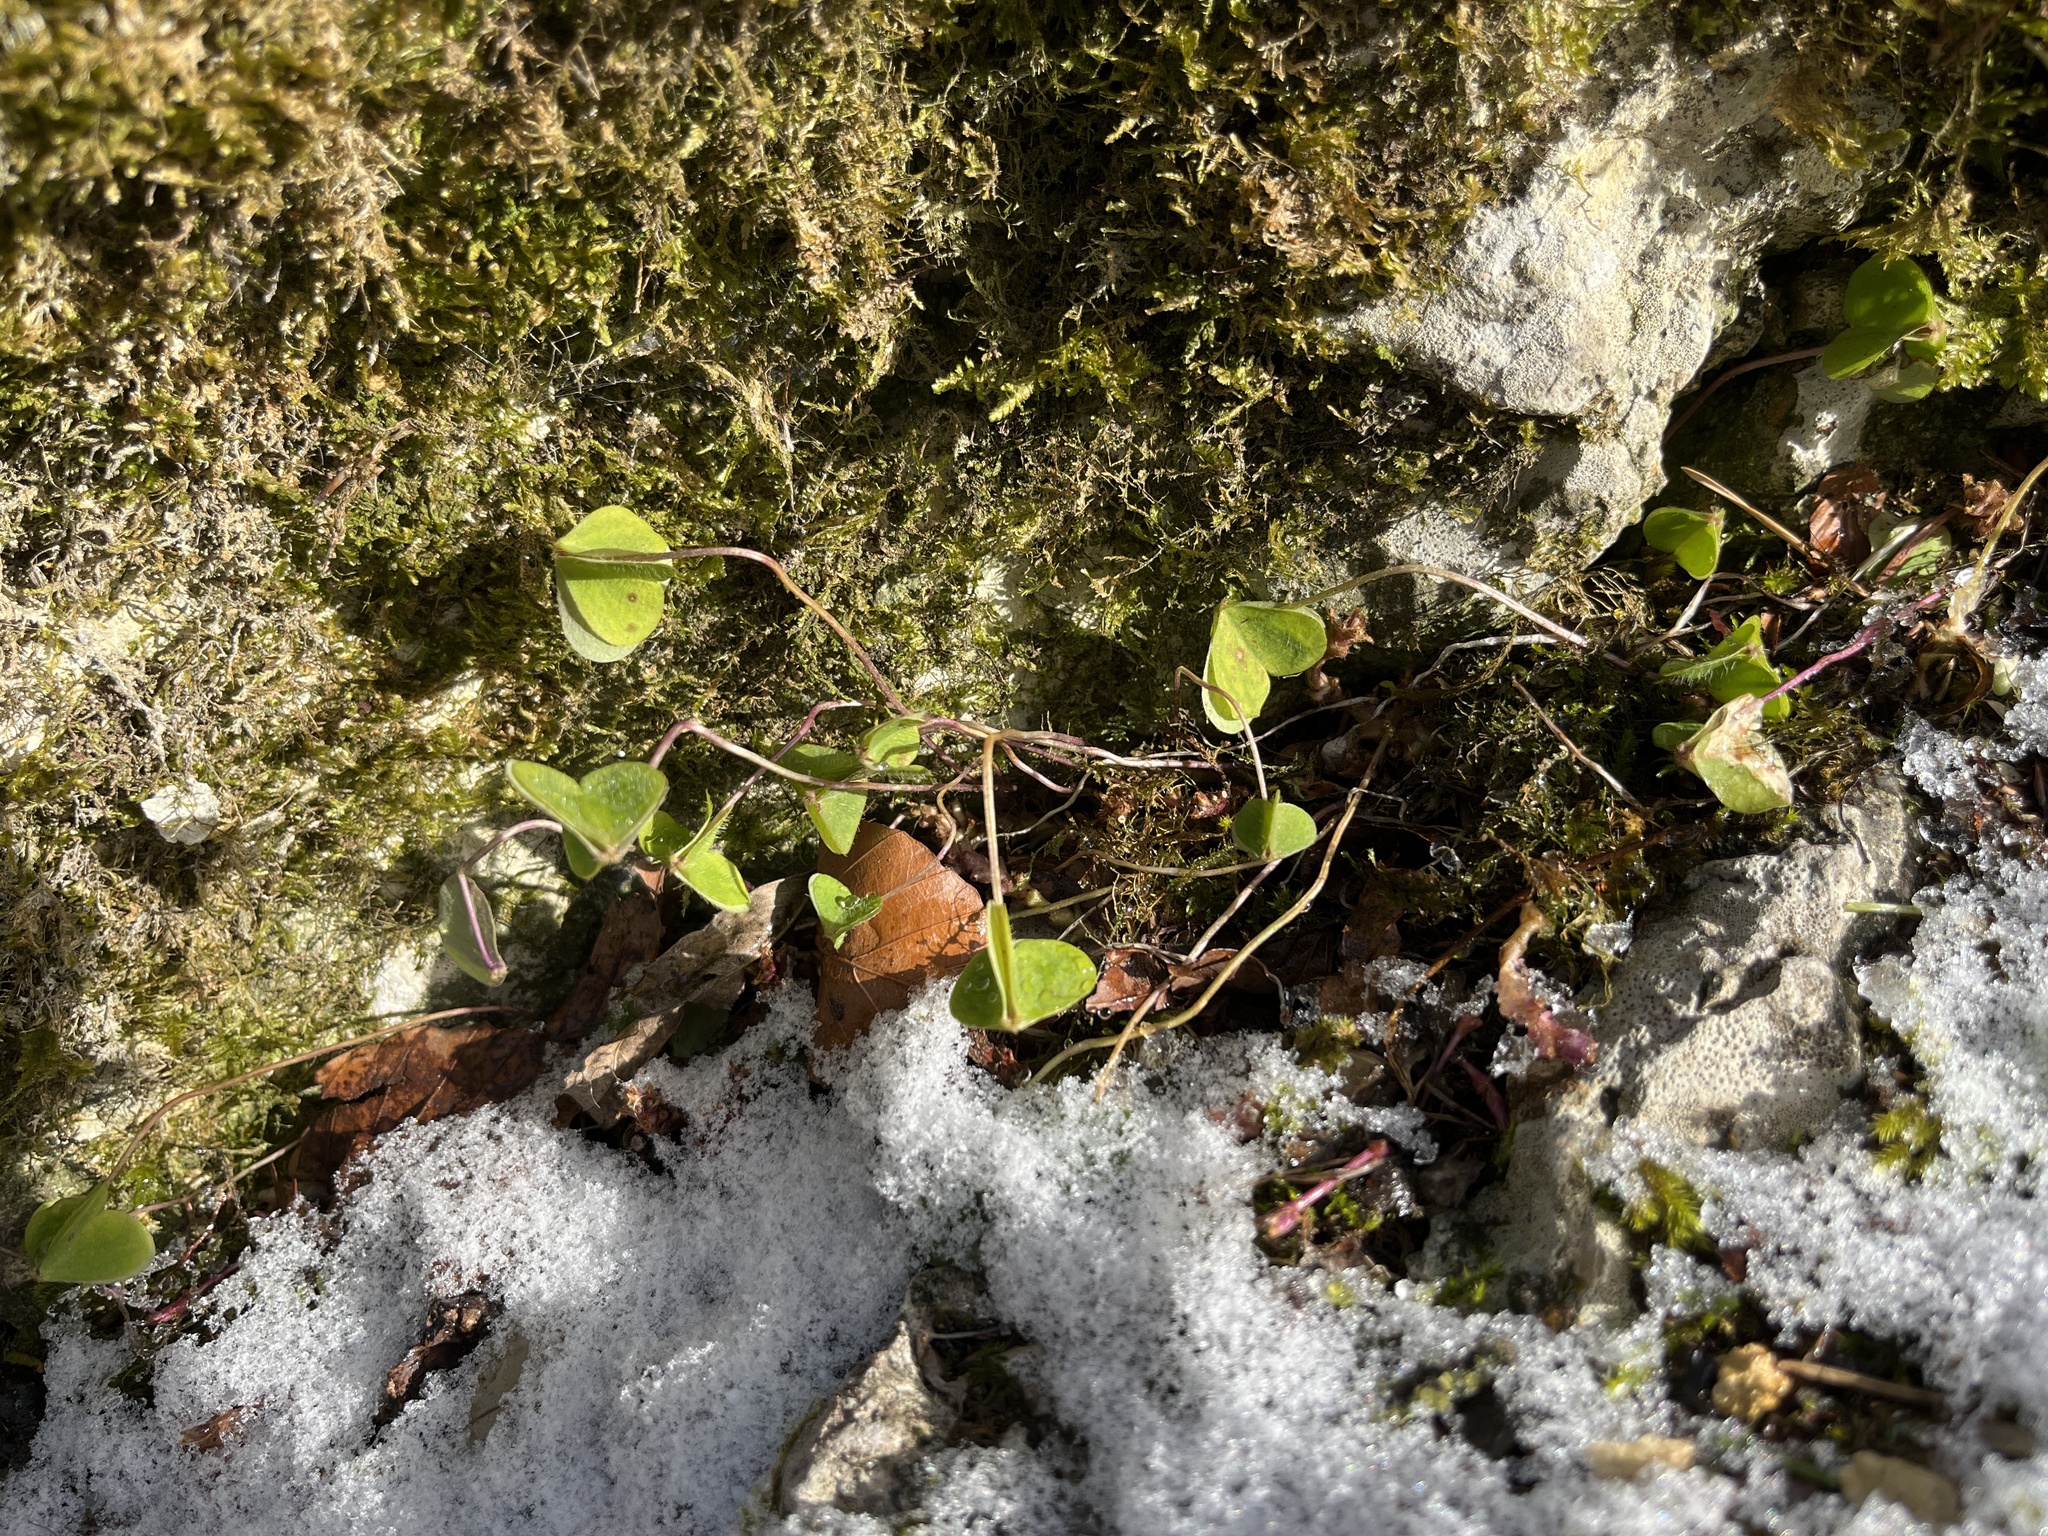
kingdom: Plantae
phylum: Tracheophyta
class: Magnoliopsida
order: Oxalidales
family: Oxalidaceae
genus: Oxalis
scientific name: Oxalis acetosella
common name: Wood-sorrel
